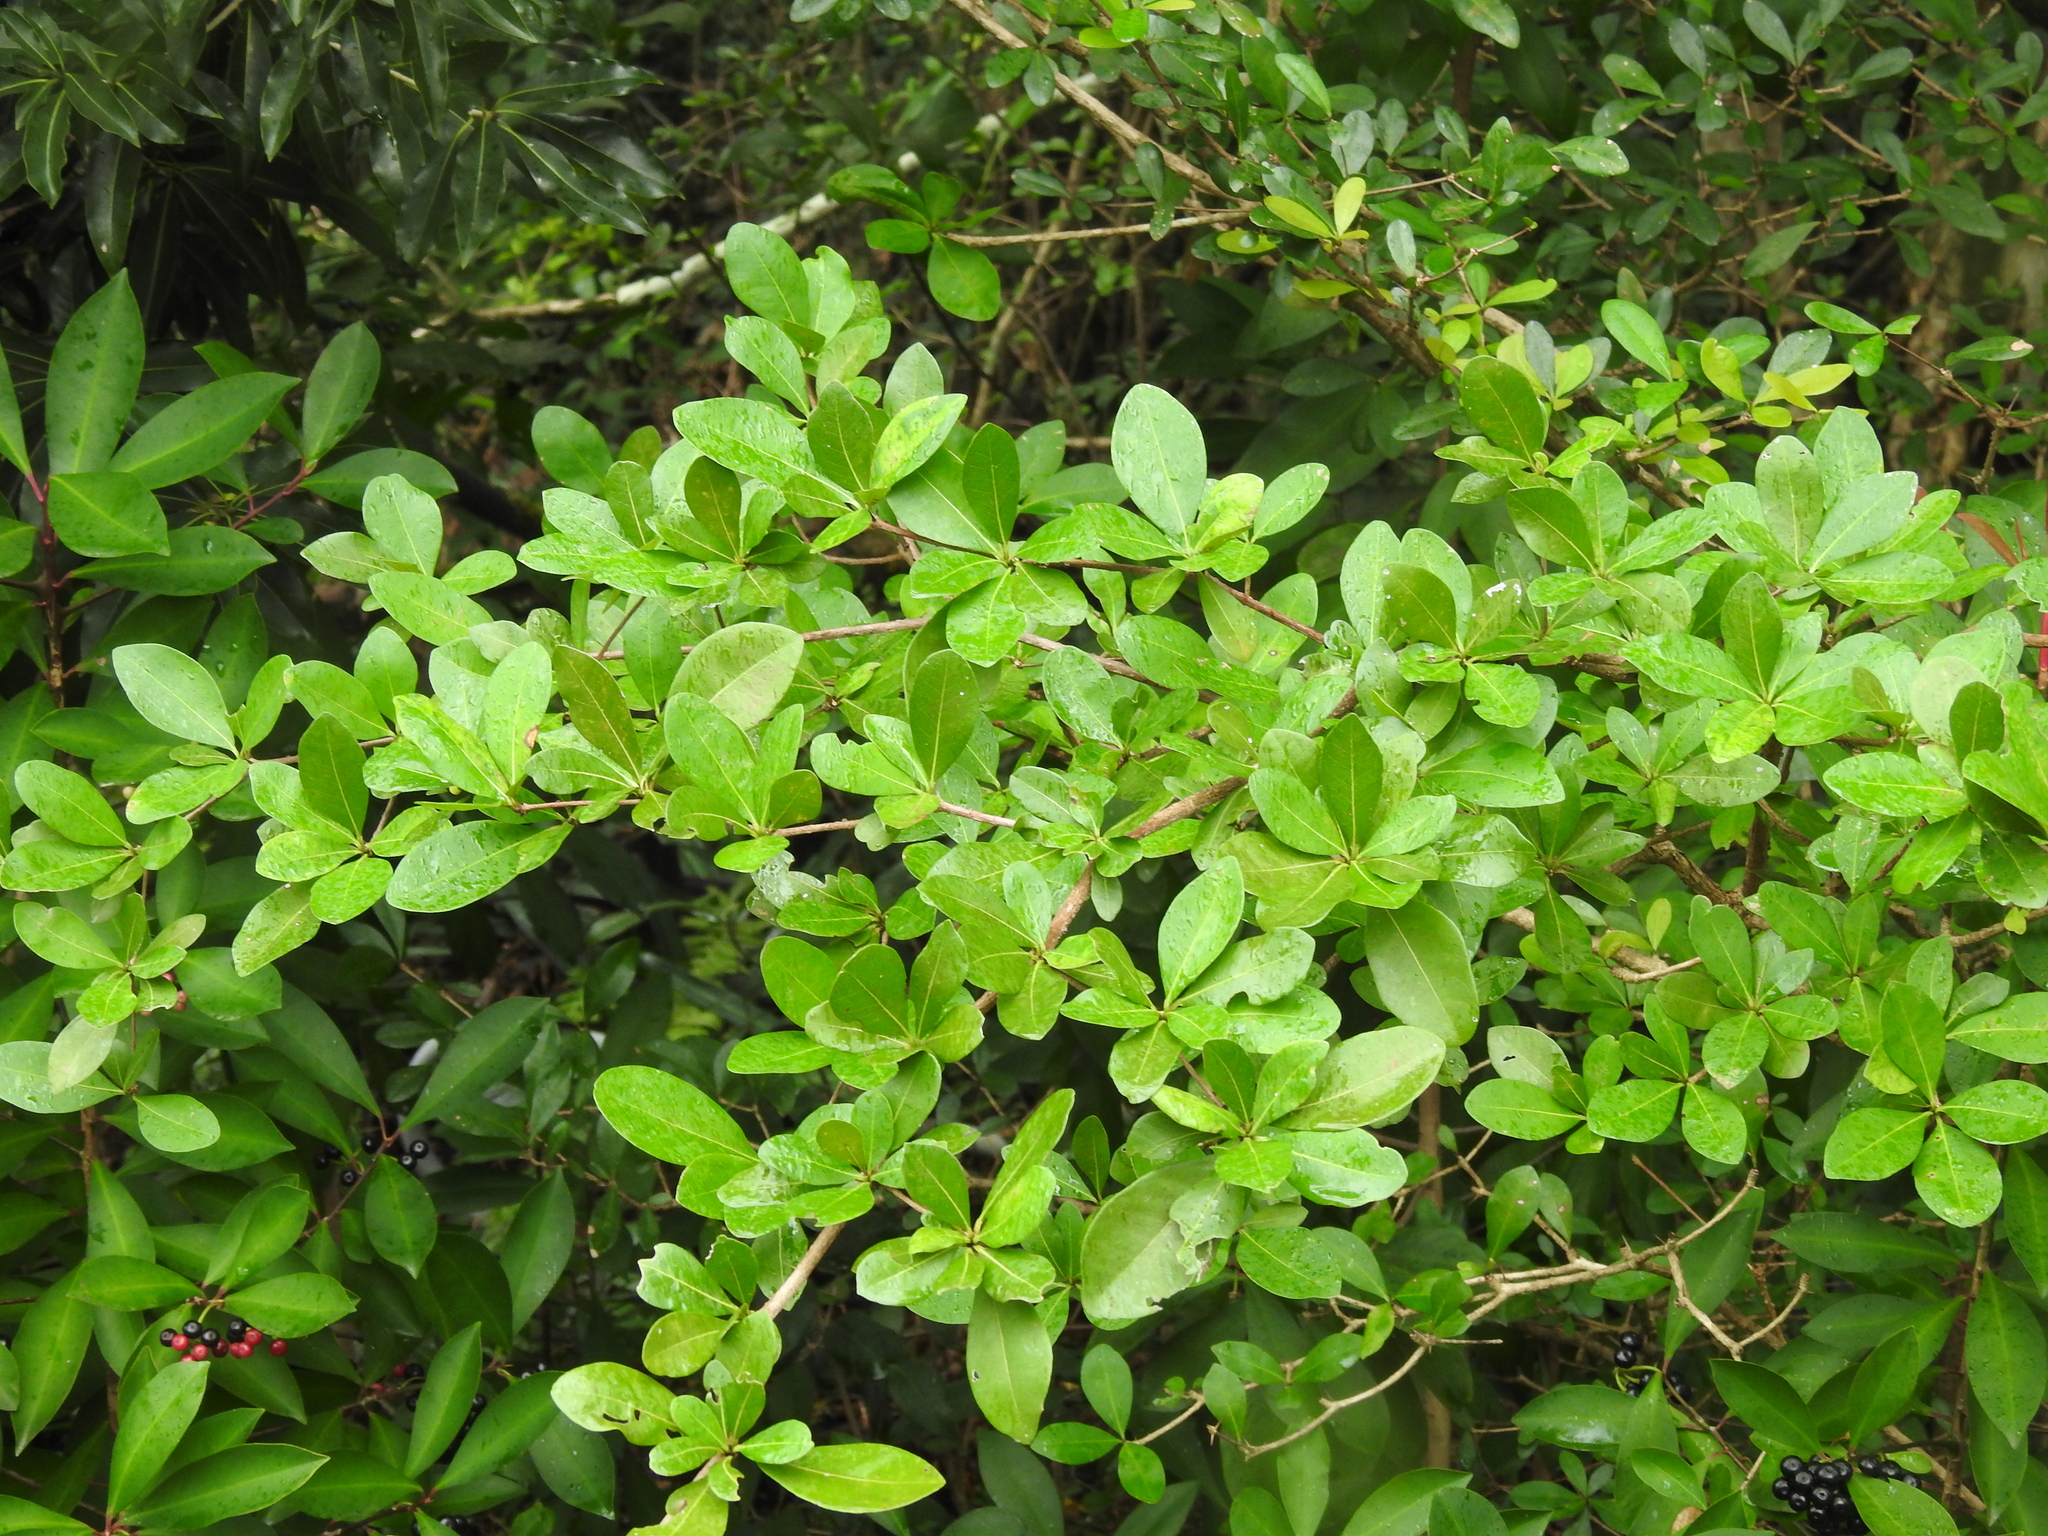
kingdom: Plantae
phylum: Tracheophyta
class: Magnoliopsida
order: Myrtales
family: Combretaceae
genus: Terminalia
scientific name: Terminalia buceras
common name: Black-olive
